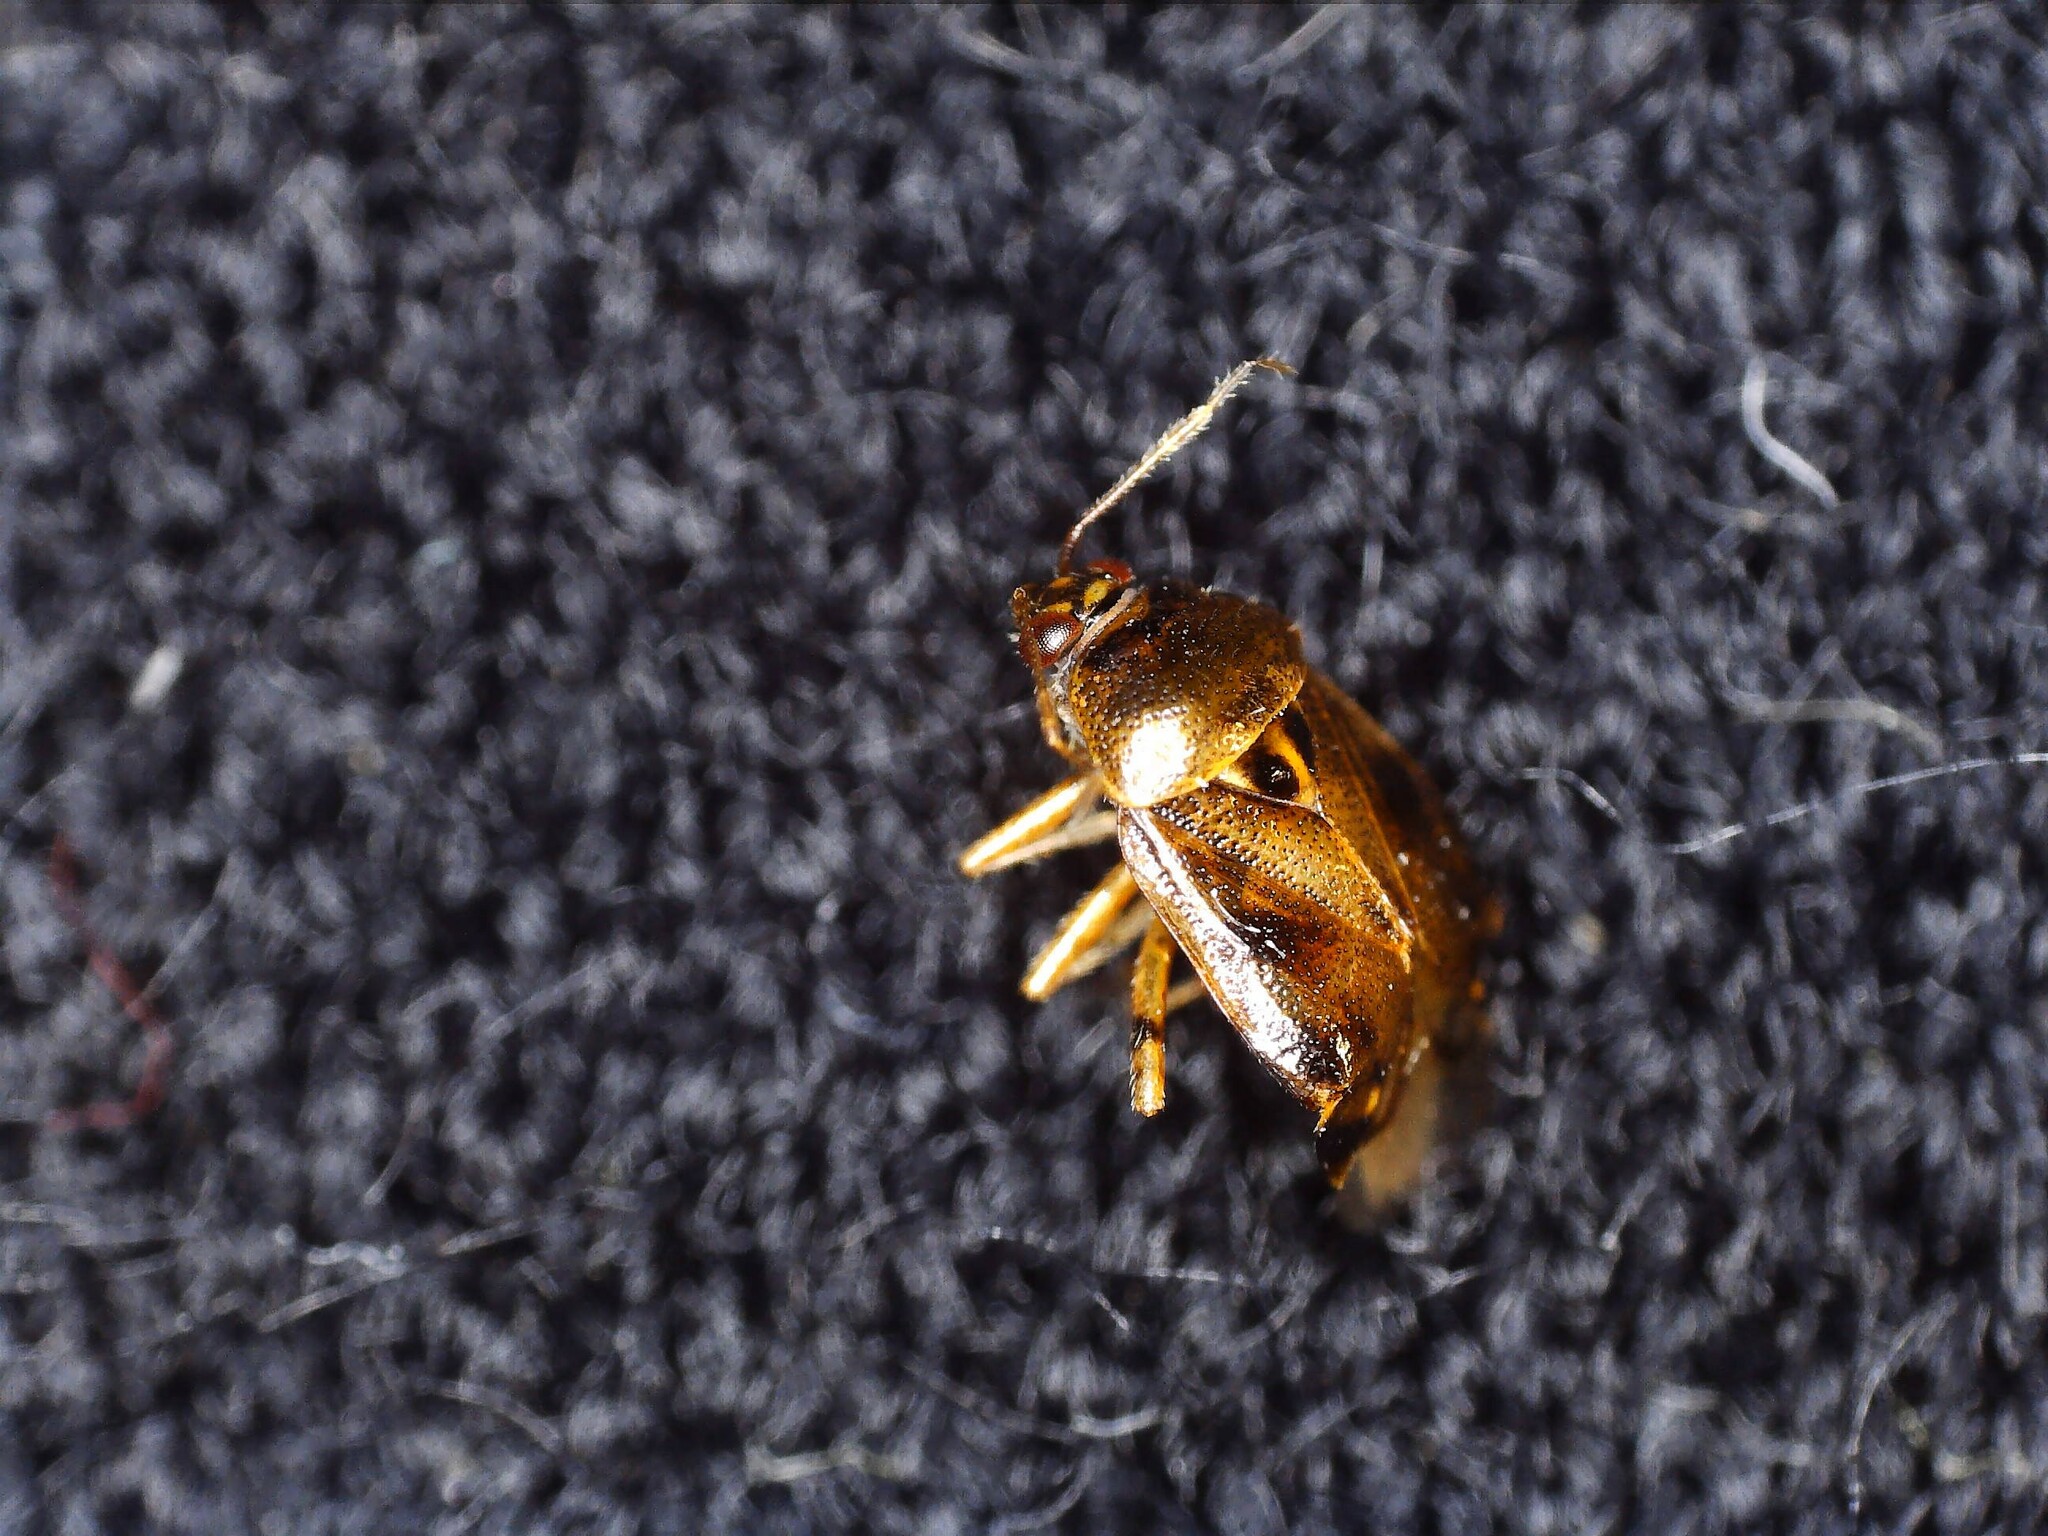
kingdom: Animalia
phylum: Arthropoda
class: Insecta
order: Hemiptera
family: Miridae
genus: Deraeocoris
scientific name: Deraeocoris lutescens
